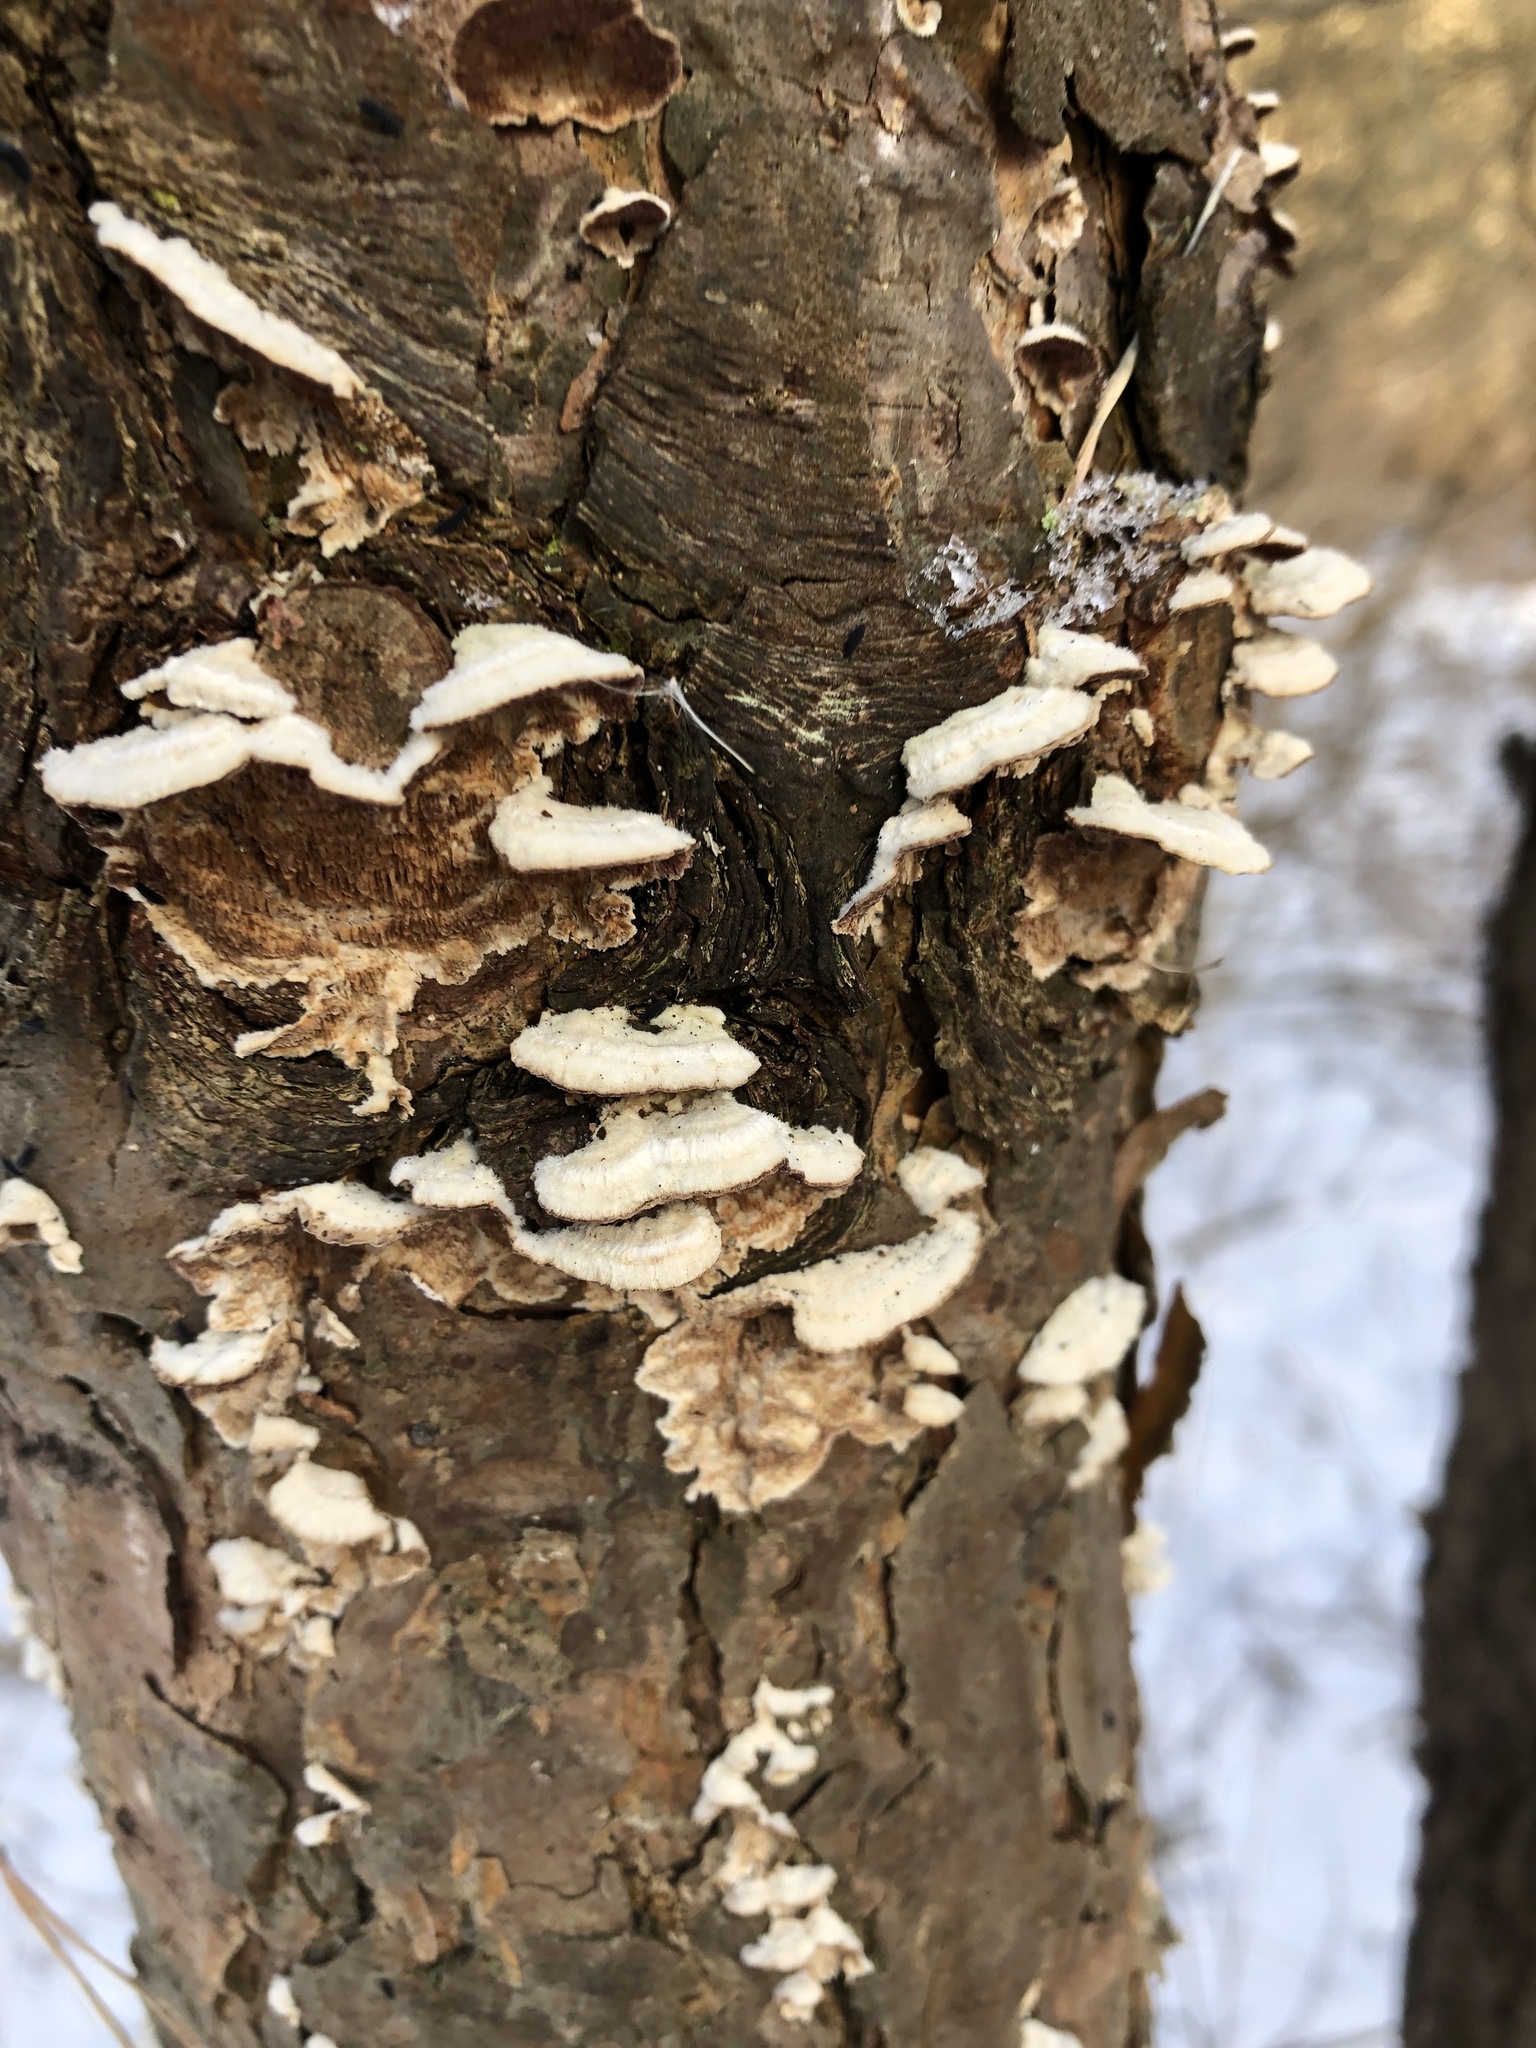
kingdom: Fungi
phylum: Basidiomycota
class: Agaricomycetes
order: Hymenochaetales
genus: Trichaptum
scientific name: Trichaptum abietinum
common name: Purplepore bracket
